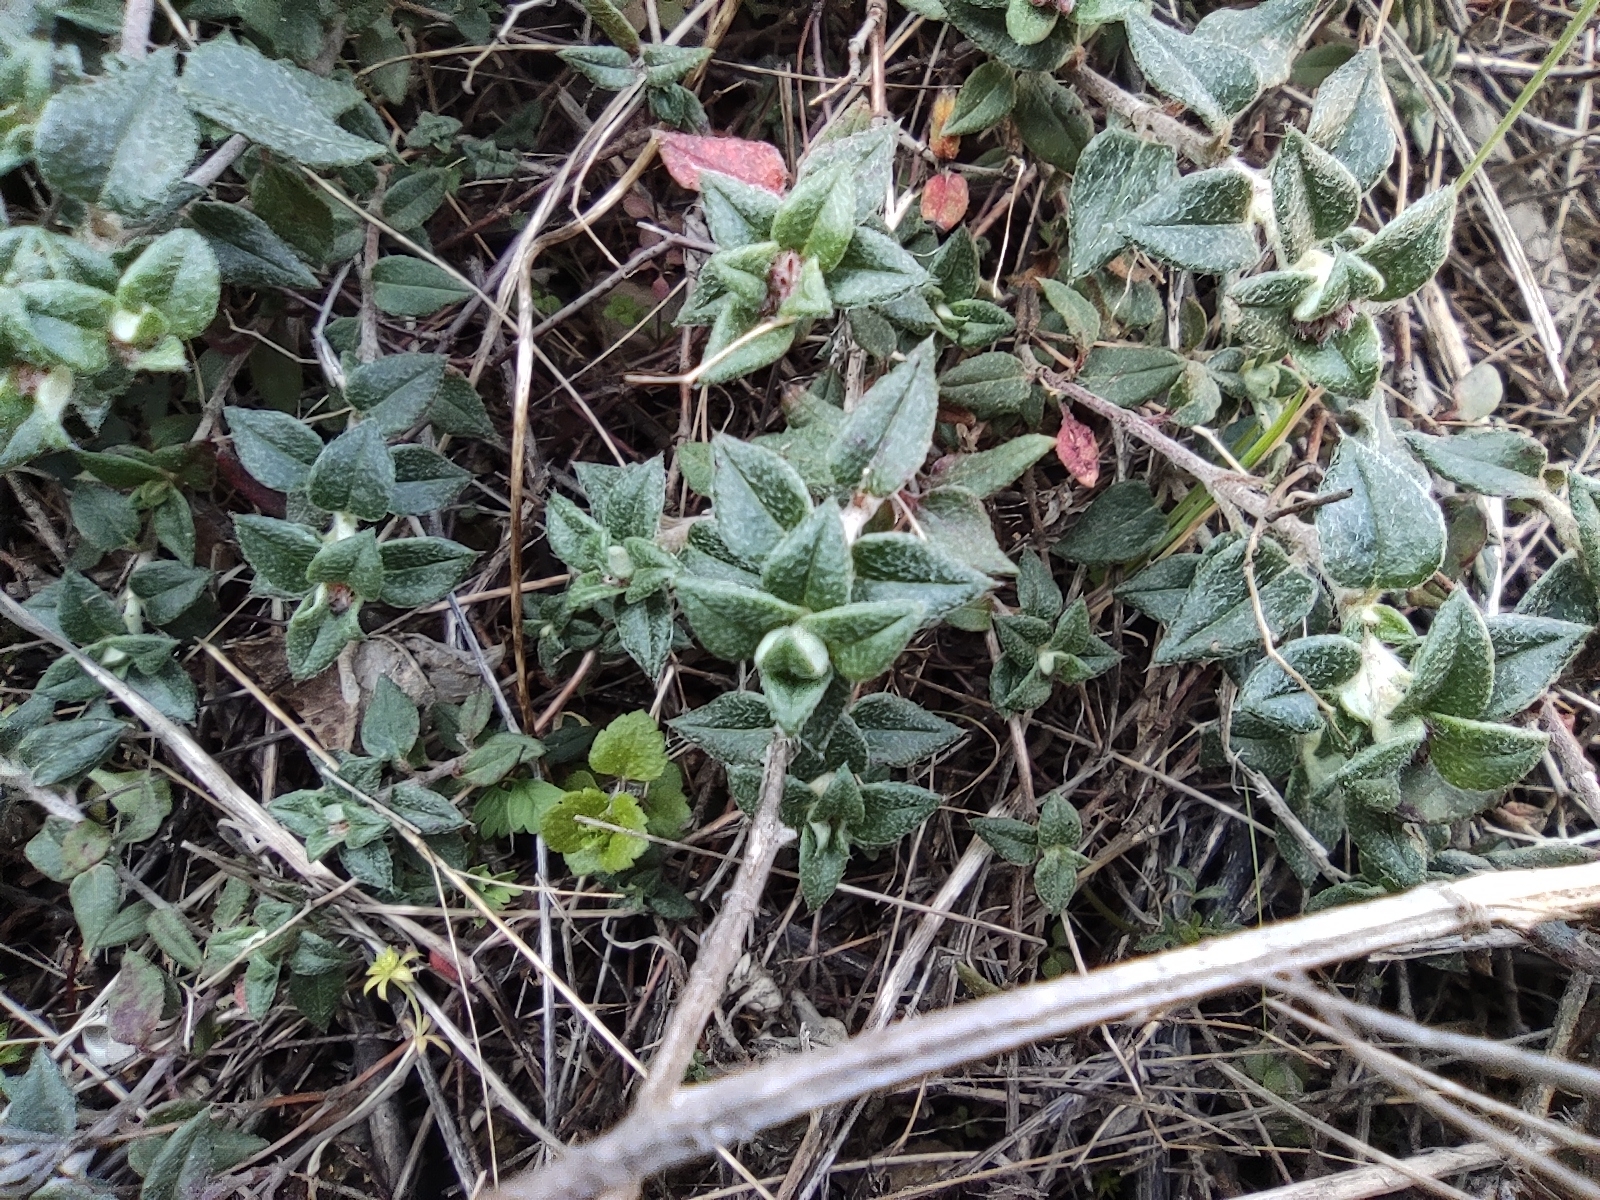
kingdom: Plantae
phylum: Tracheophyta
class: Magnoliopsida
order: Malvales
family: Cistaceae
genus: Helianthemum
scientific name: Helianthemum marifolium
